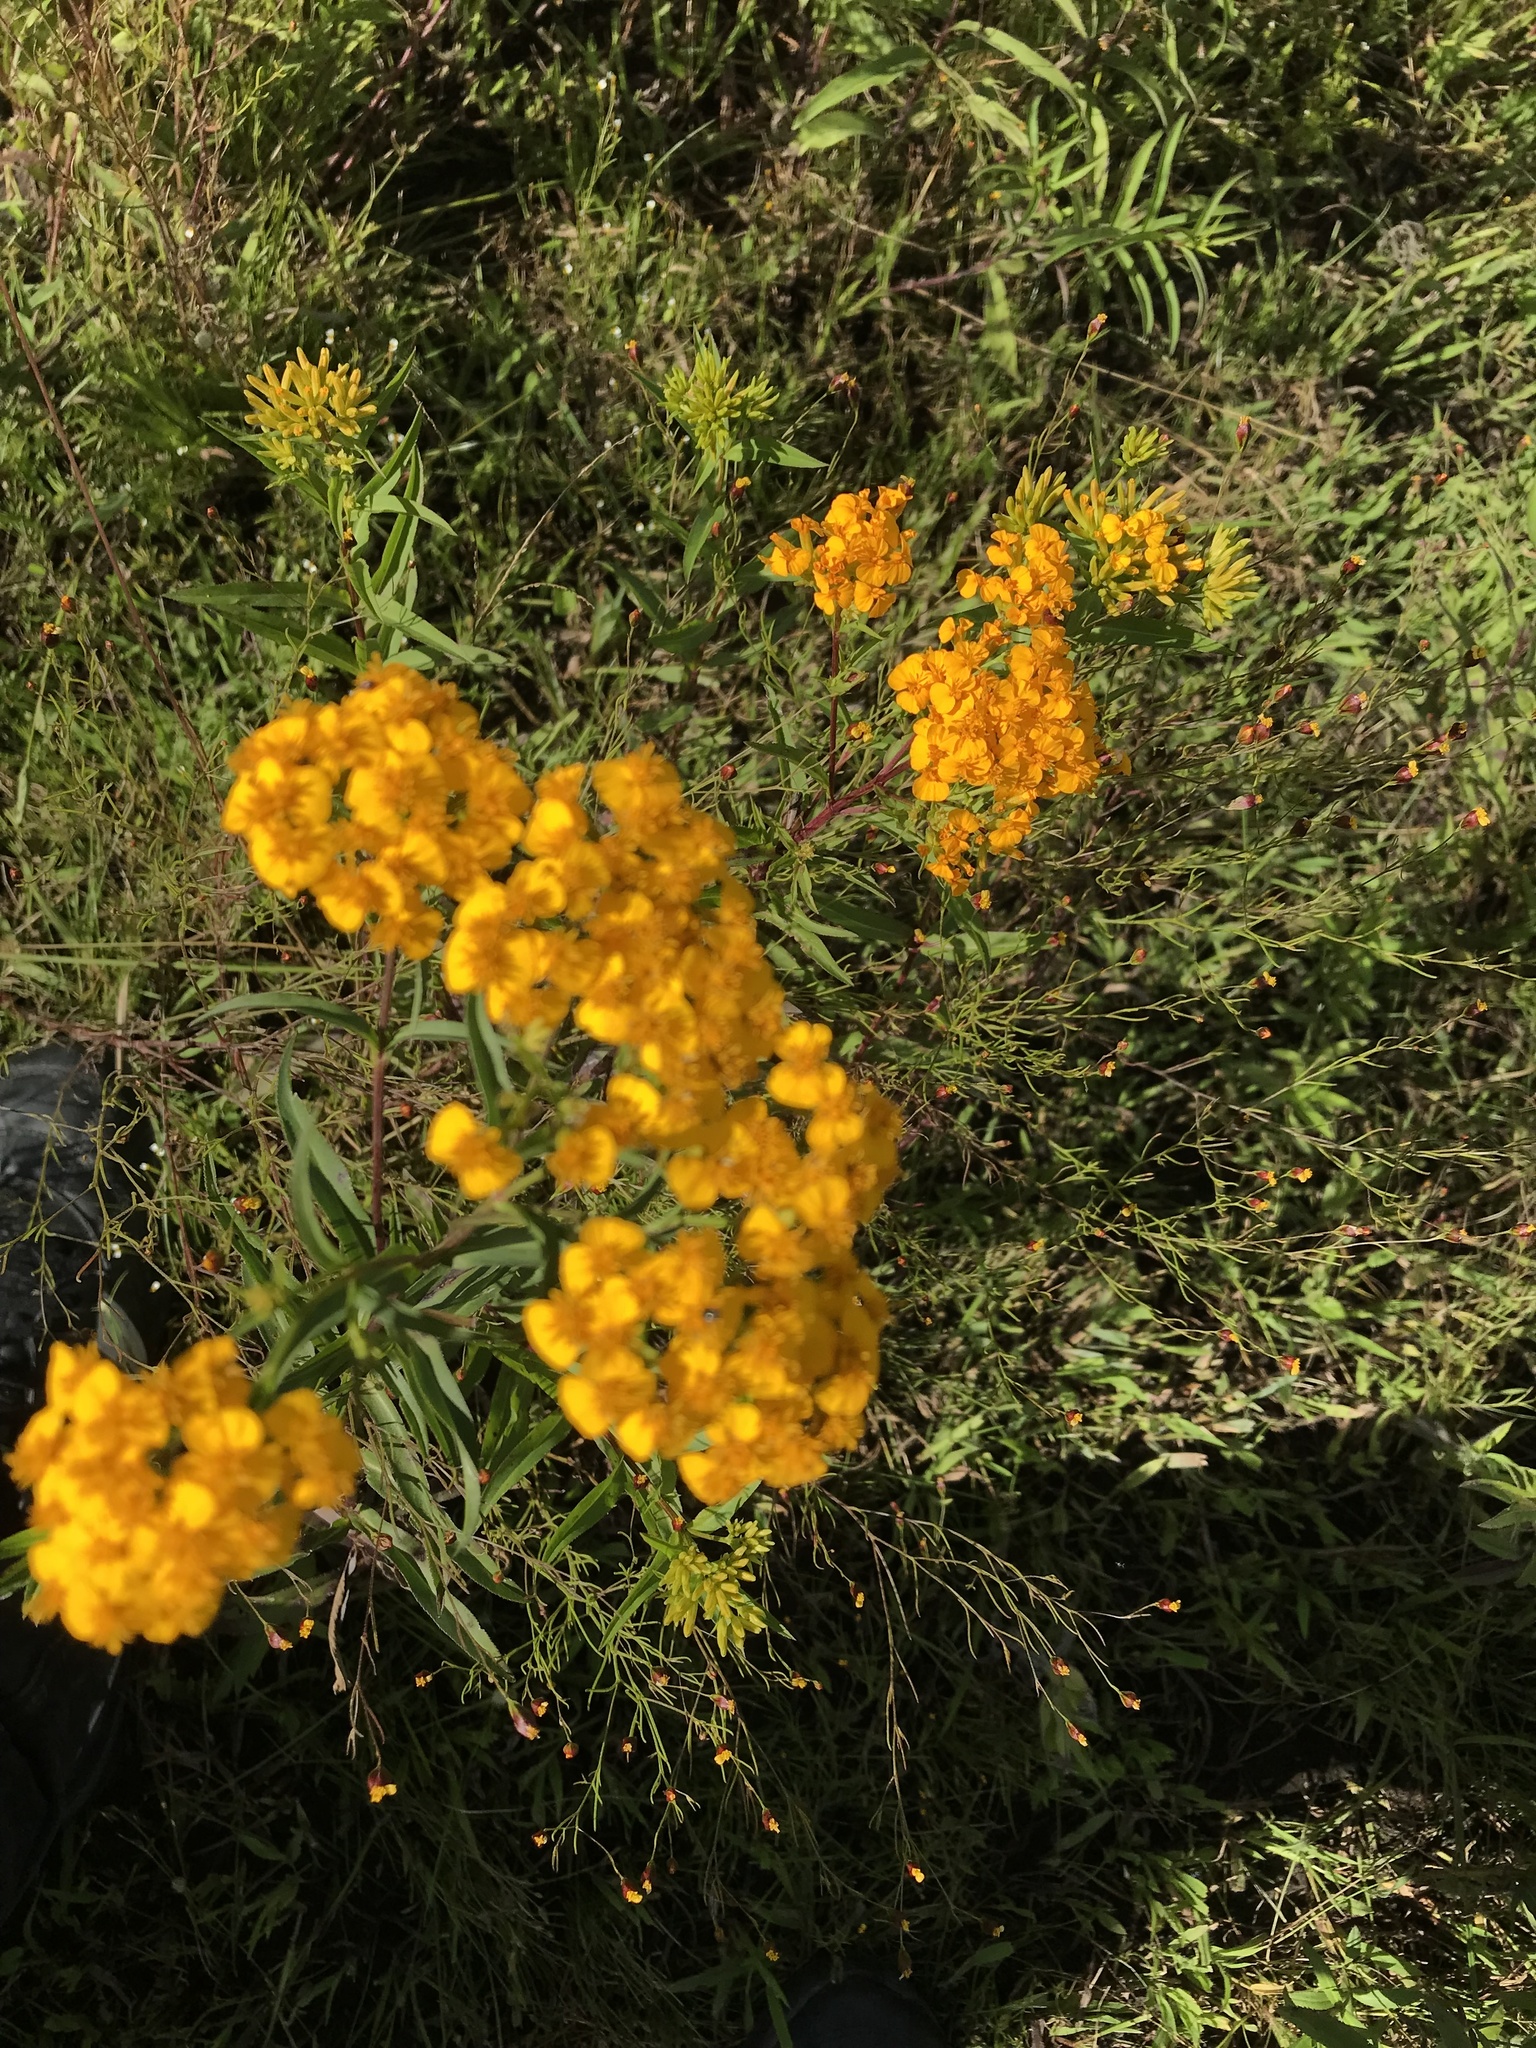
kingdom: Plantae
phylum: Tracheophyta
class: Magnoliopsida
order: Asterales
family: Asteraceae
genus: Tagetes
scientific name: Tagetes lucida
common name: Sweetscented marigold
